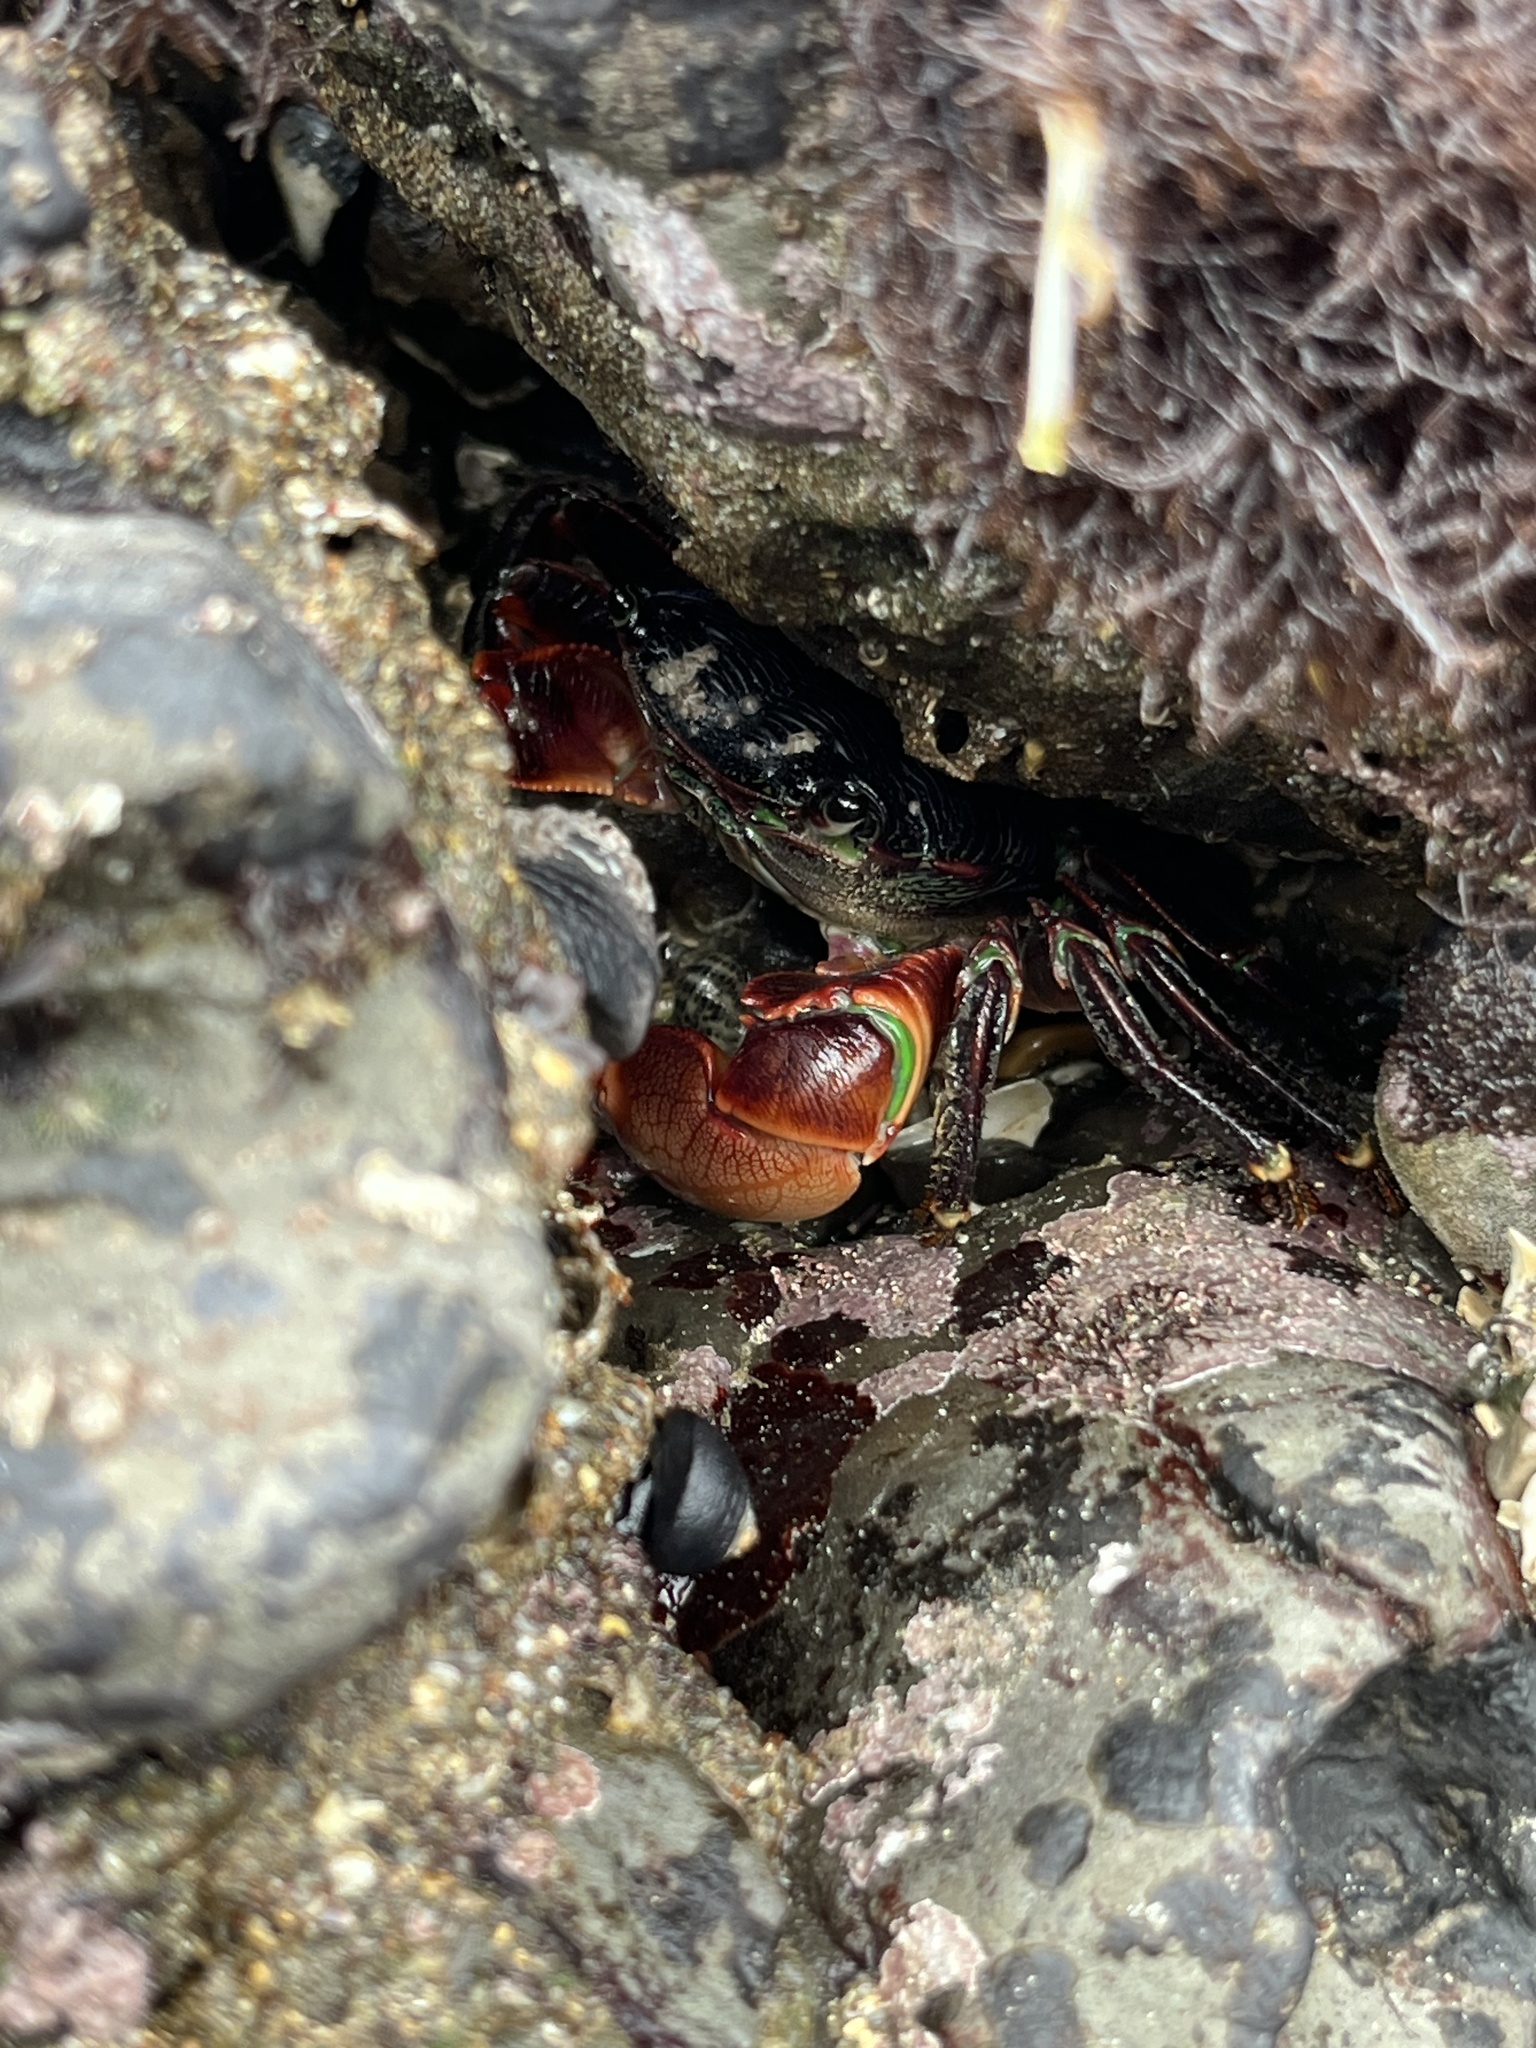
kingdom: Animalia
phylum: Arthropoda
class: Malacostraca
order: Decapoda
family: Grapsidae
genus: Pachygrapsus
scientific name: Pachygrapsus crassipes
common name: Striped shore crab
